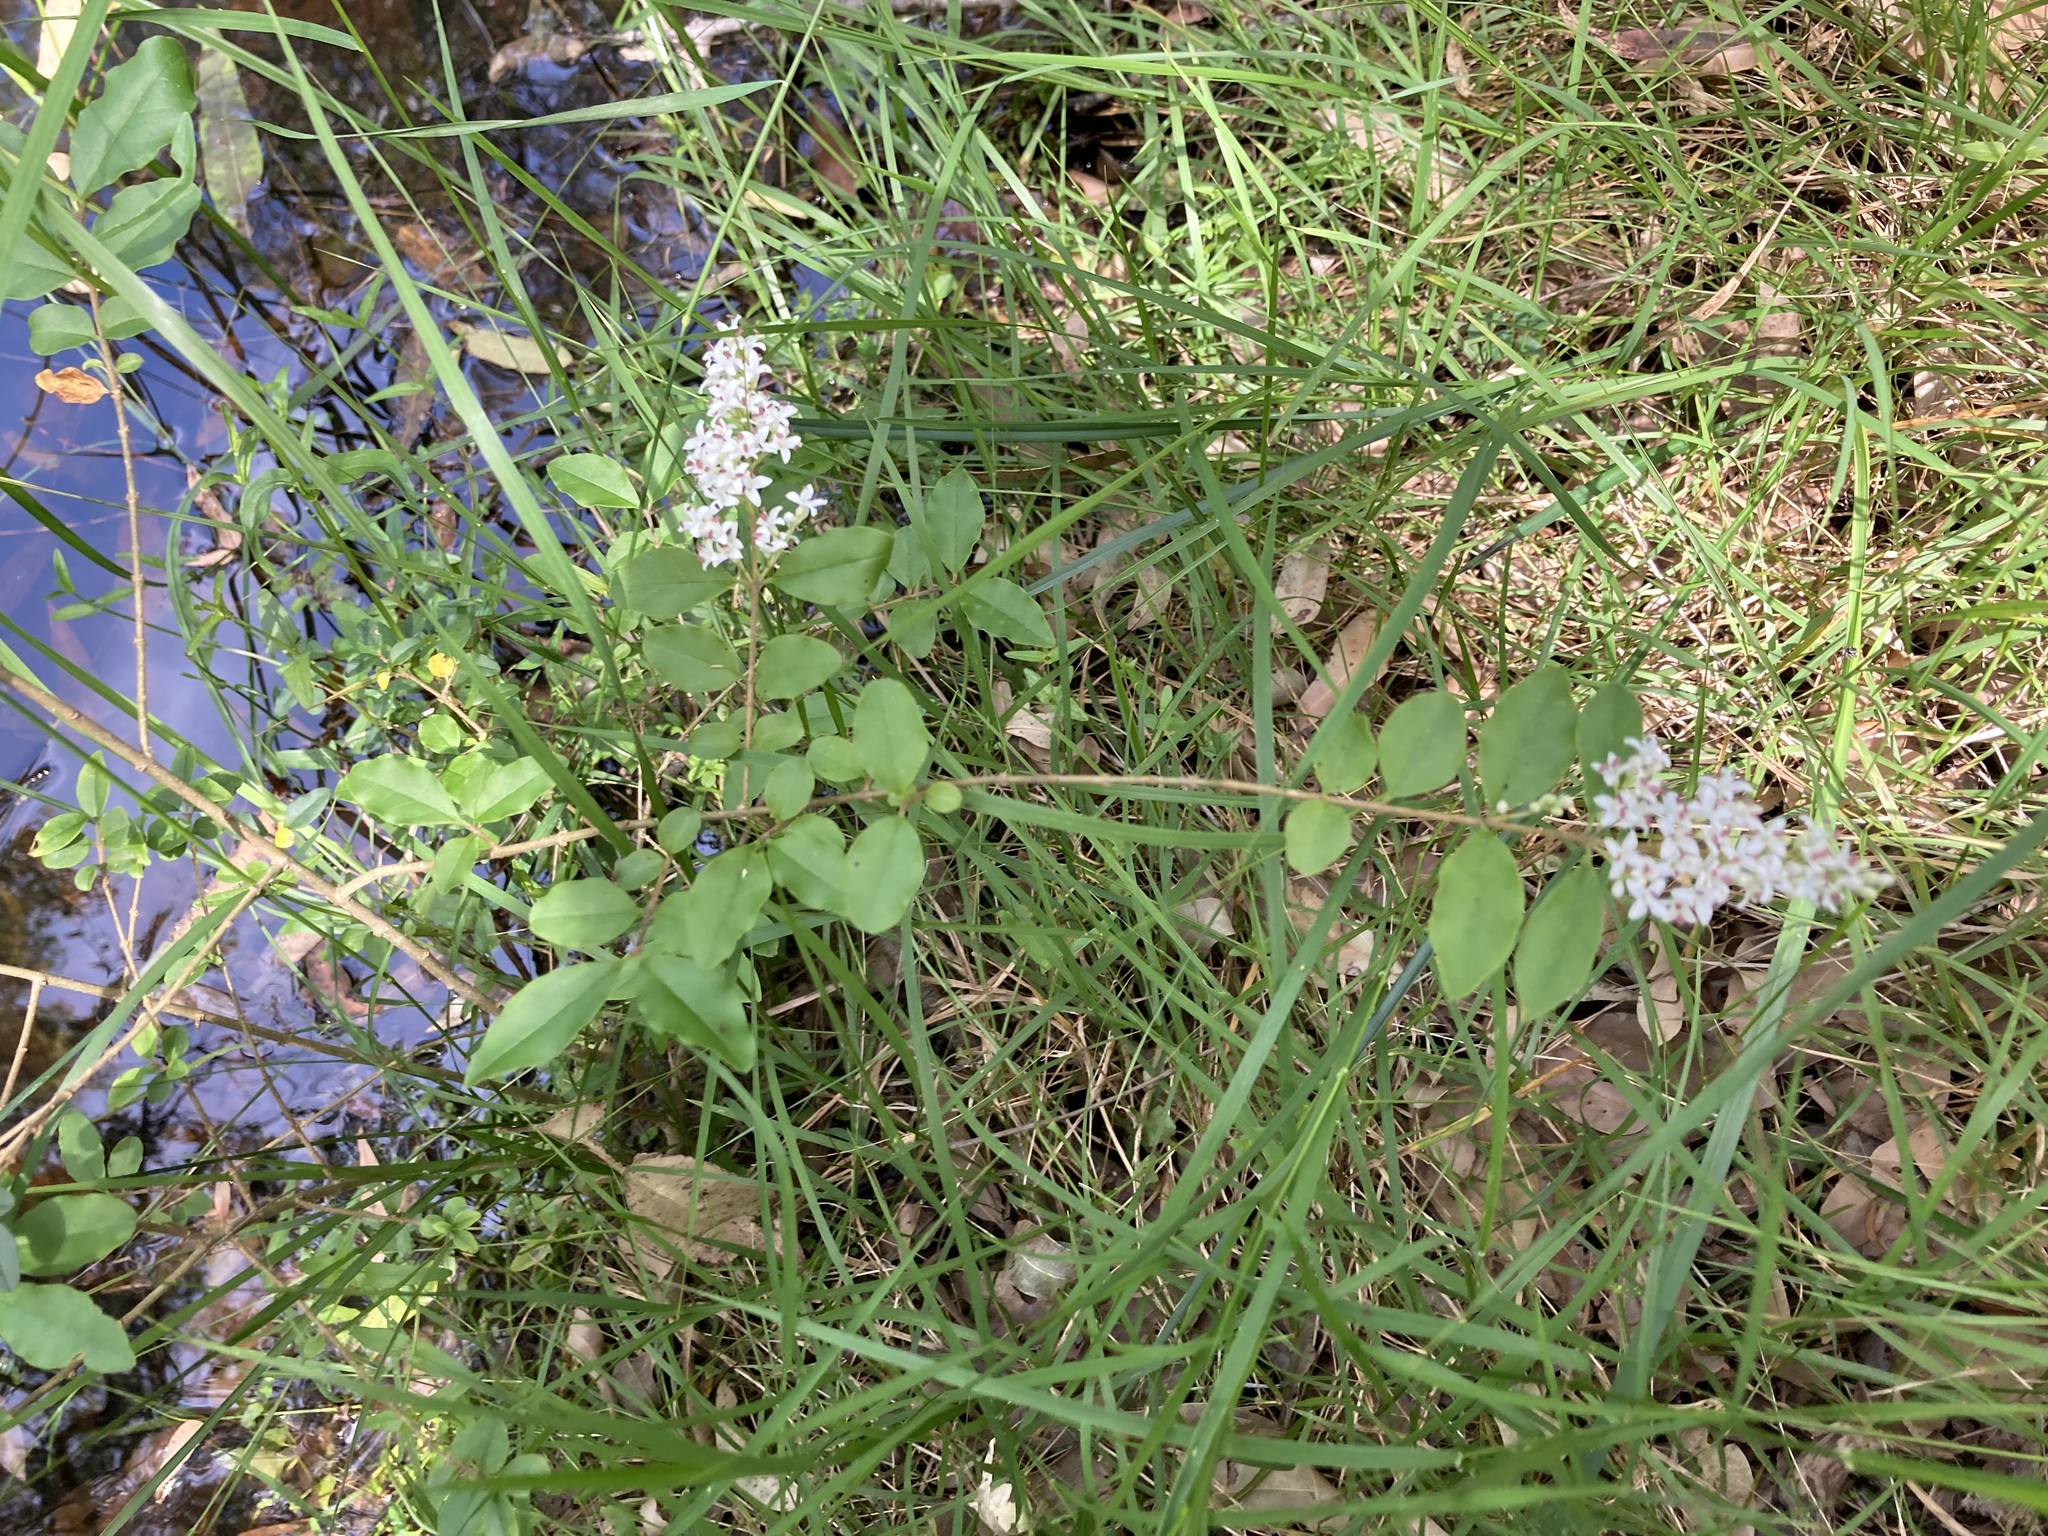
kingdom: Plantae
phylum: Tracheophyta
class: Magnoliopsida
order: Lamiales
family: Oleaceae
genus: Ligustrum
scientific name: Ligustrum sinense
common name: Chinese privet
